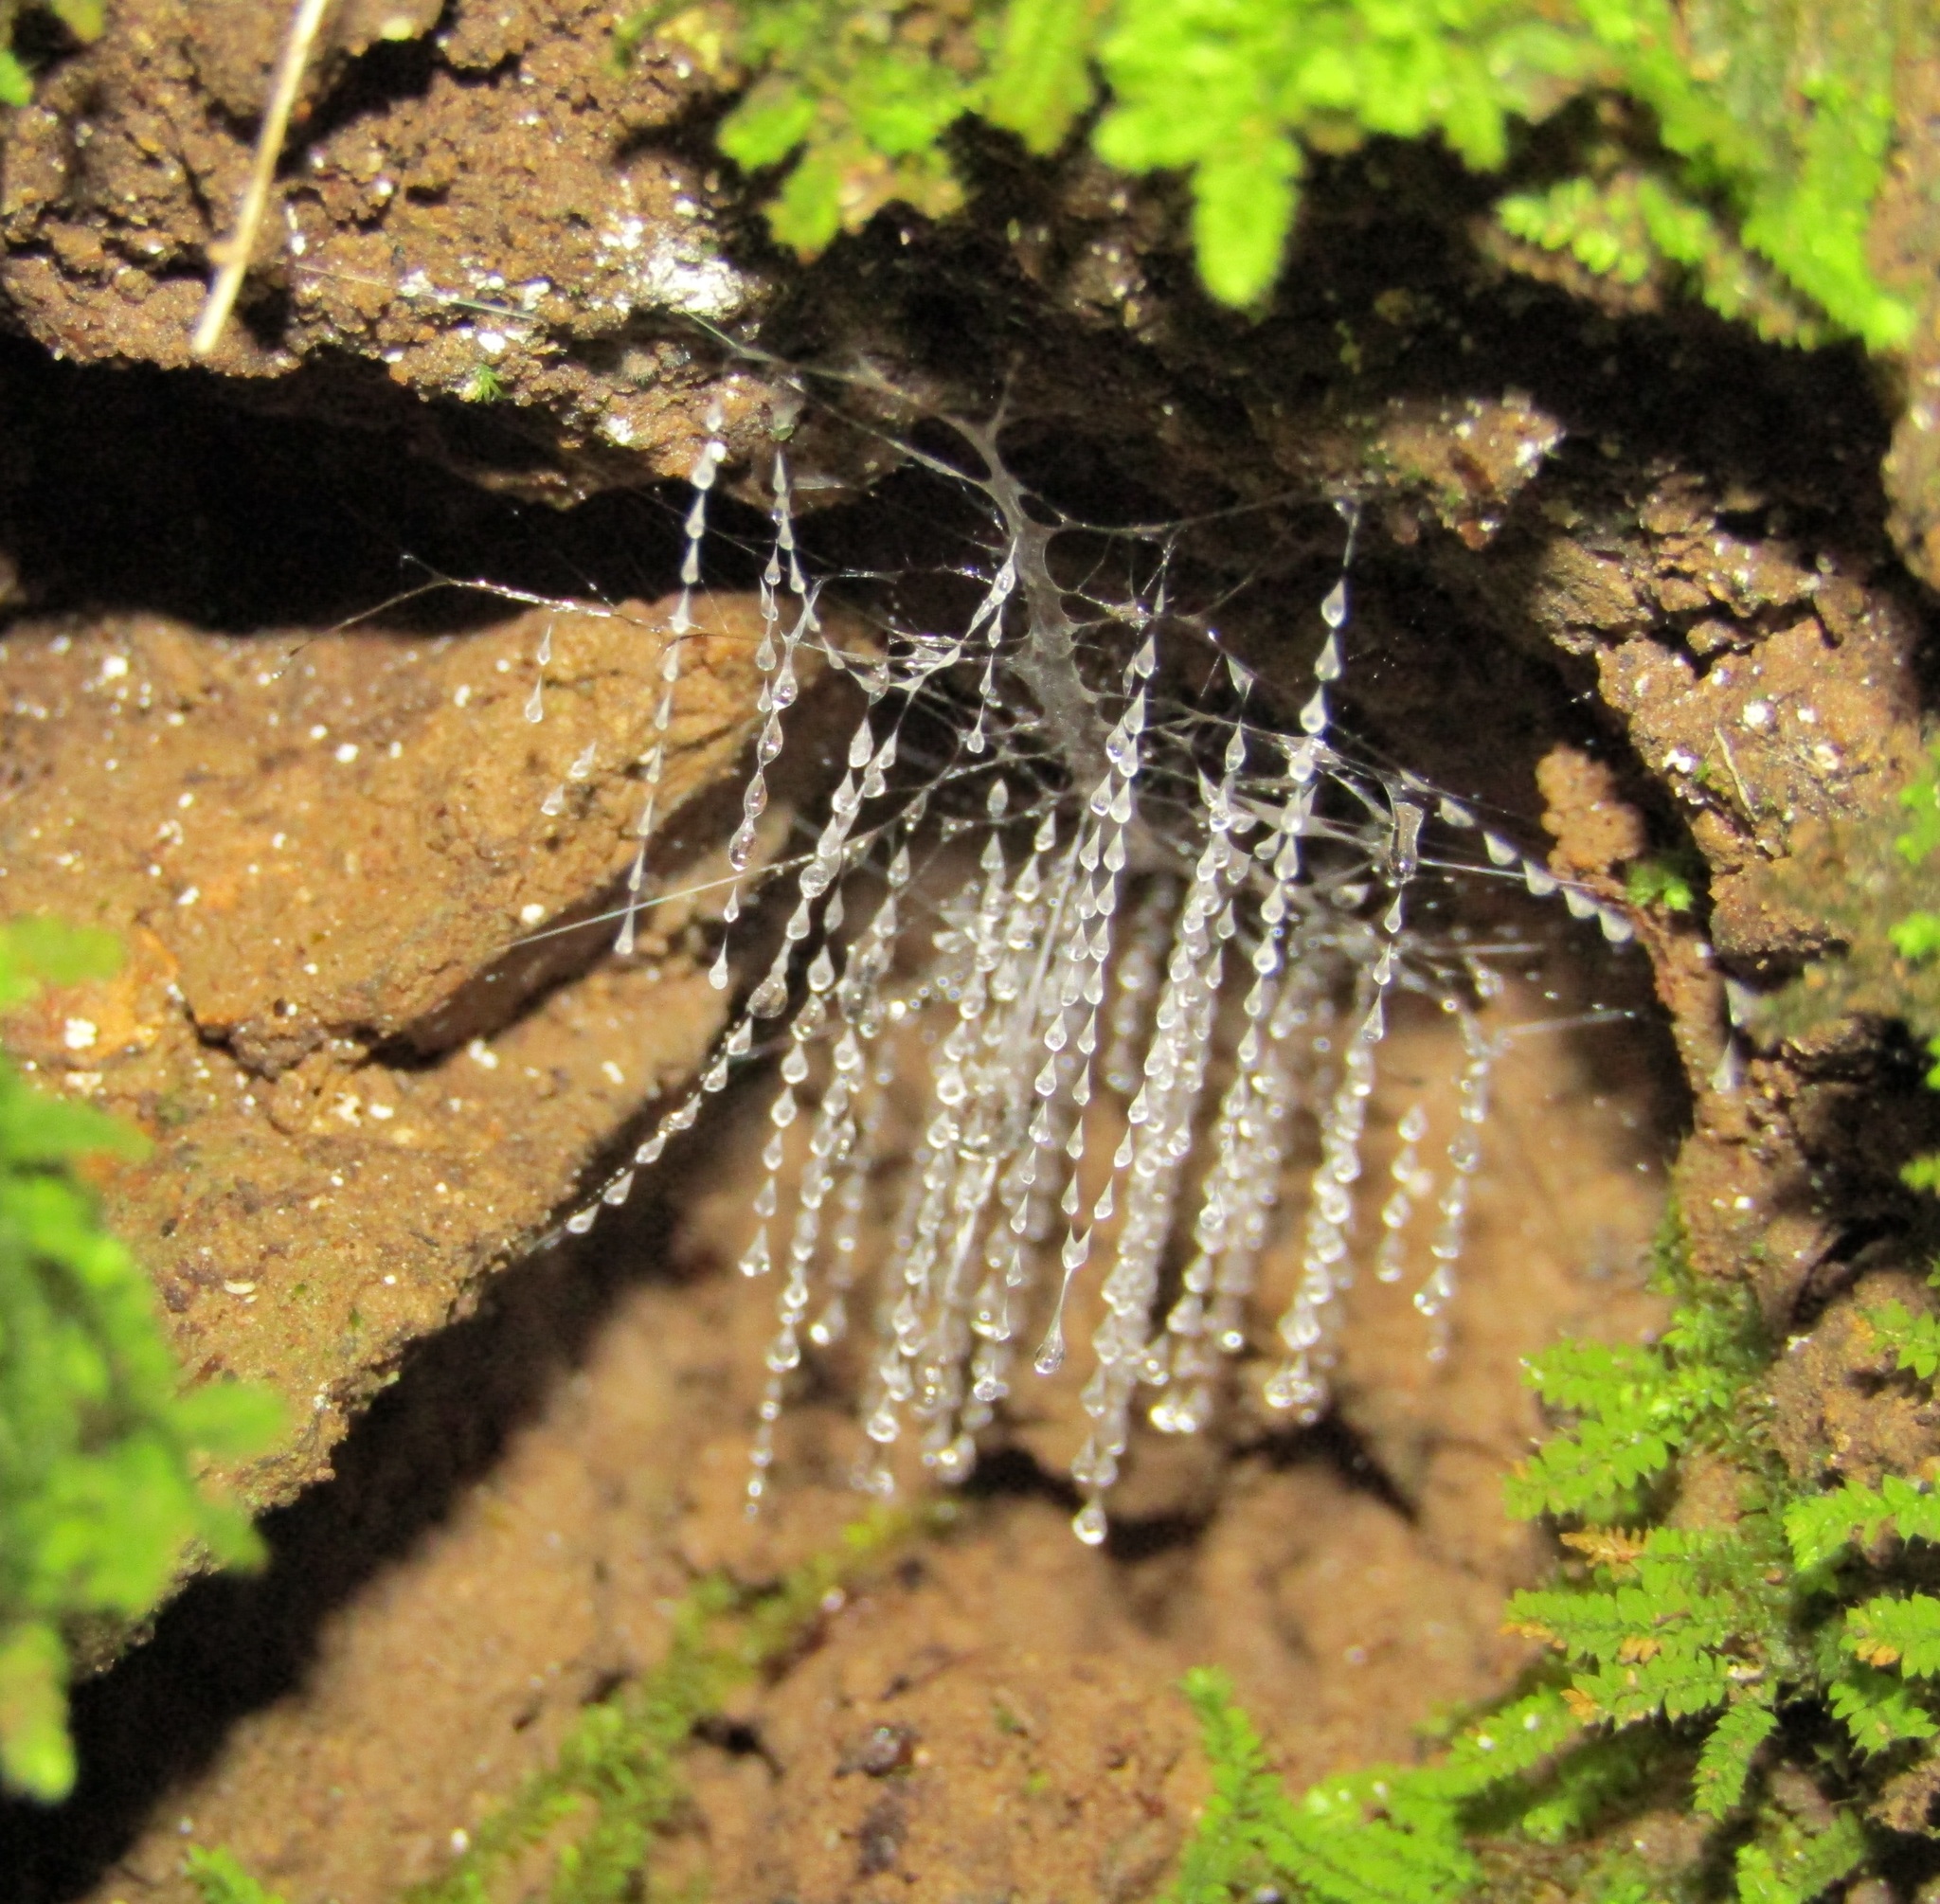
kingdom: Animalia
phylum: Arthropoda
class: Insecta
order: Diptera
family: Keroplatidae
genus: Arachnocampa
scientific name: Arachnocampa luminosa
